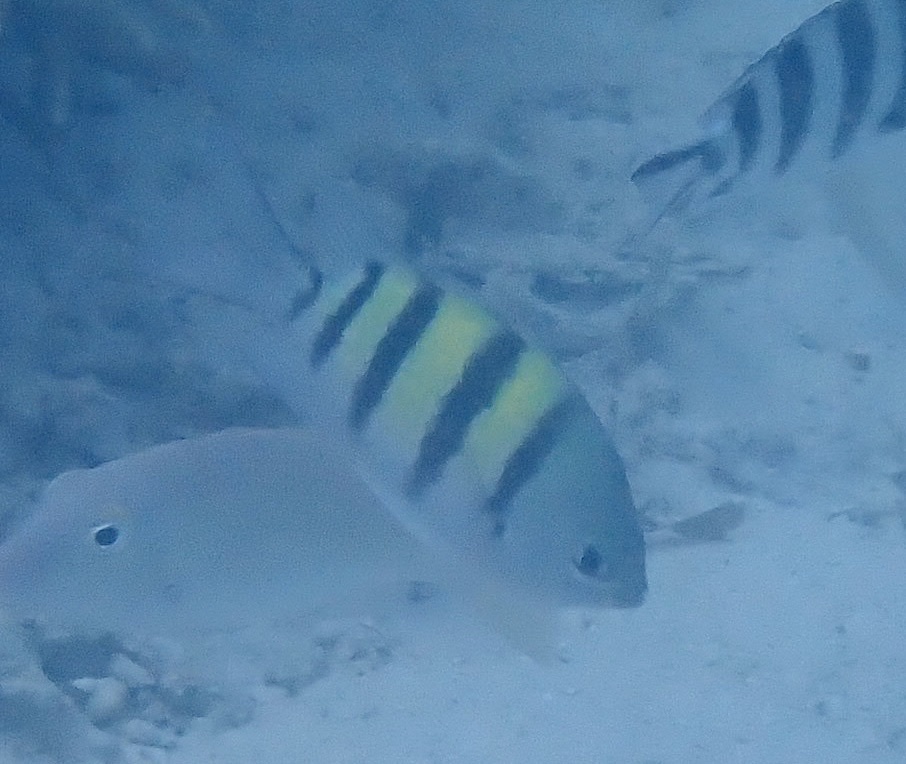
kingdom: Animalia
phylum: Chordata
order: Perciformes
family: Pomacentridae
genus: Abudefduf
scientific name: Abudefduf vaigiensis
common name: Indo-pacific sergeant
